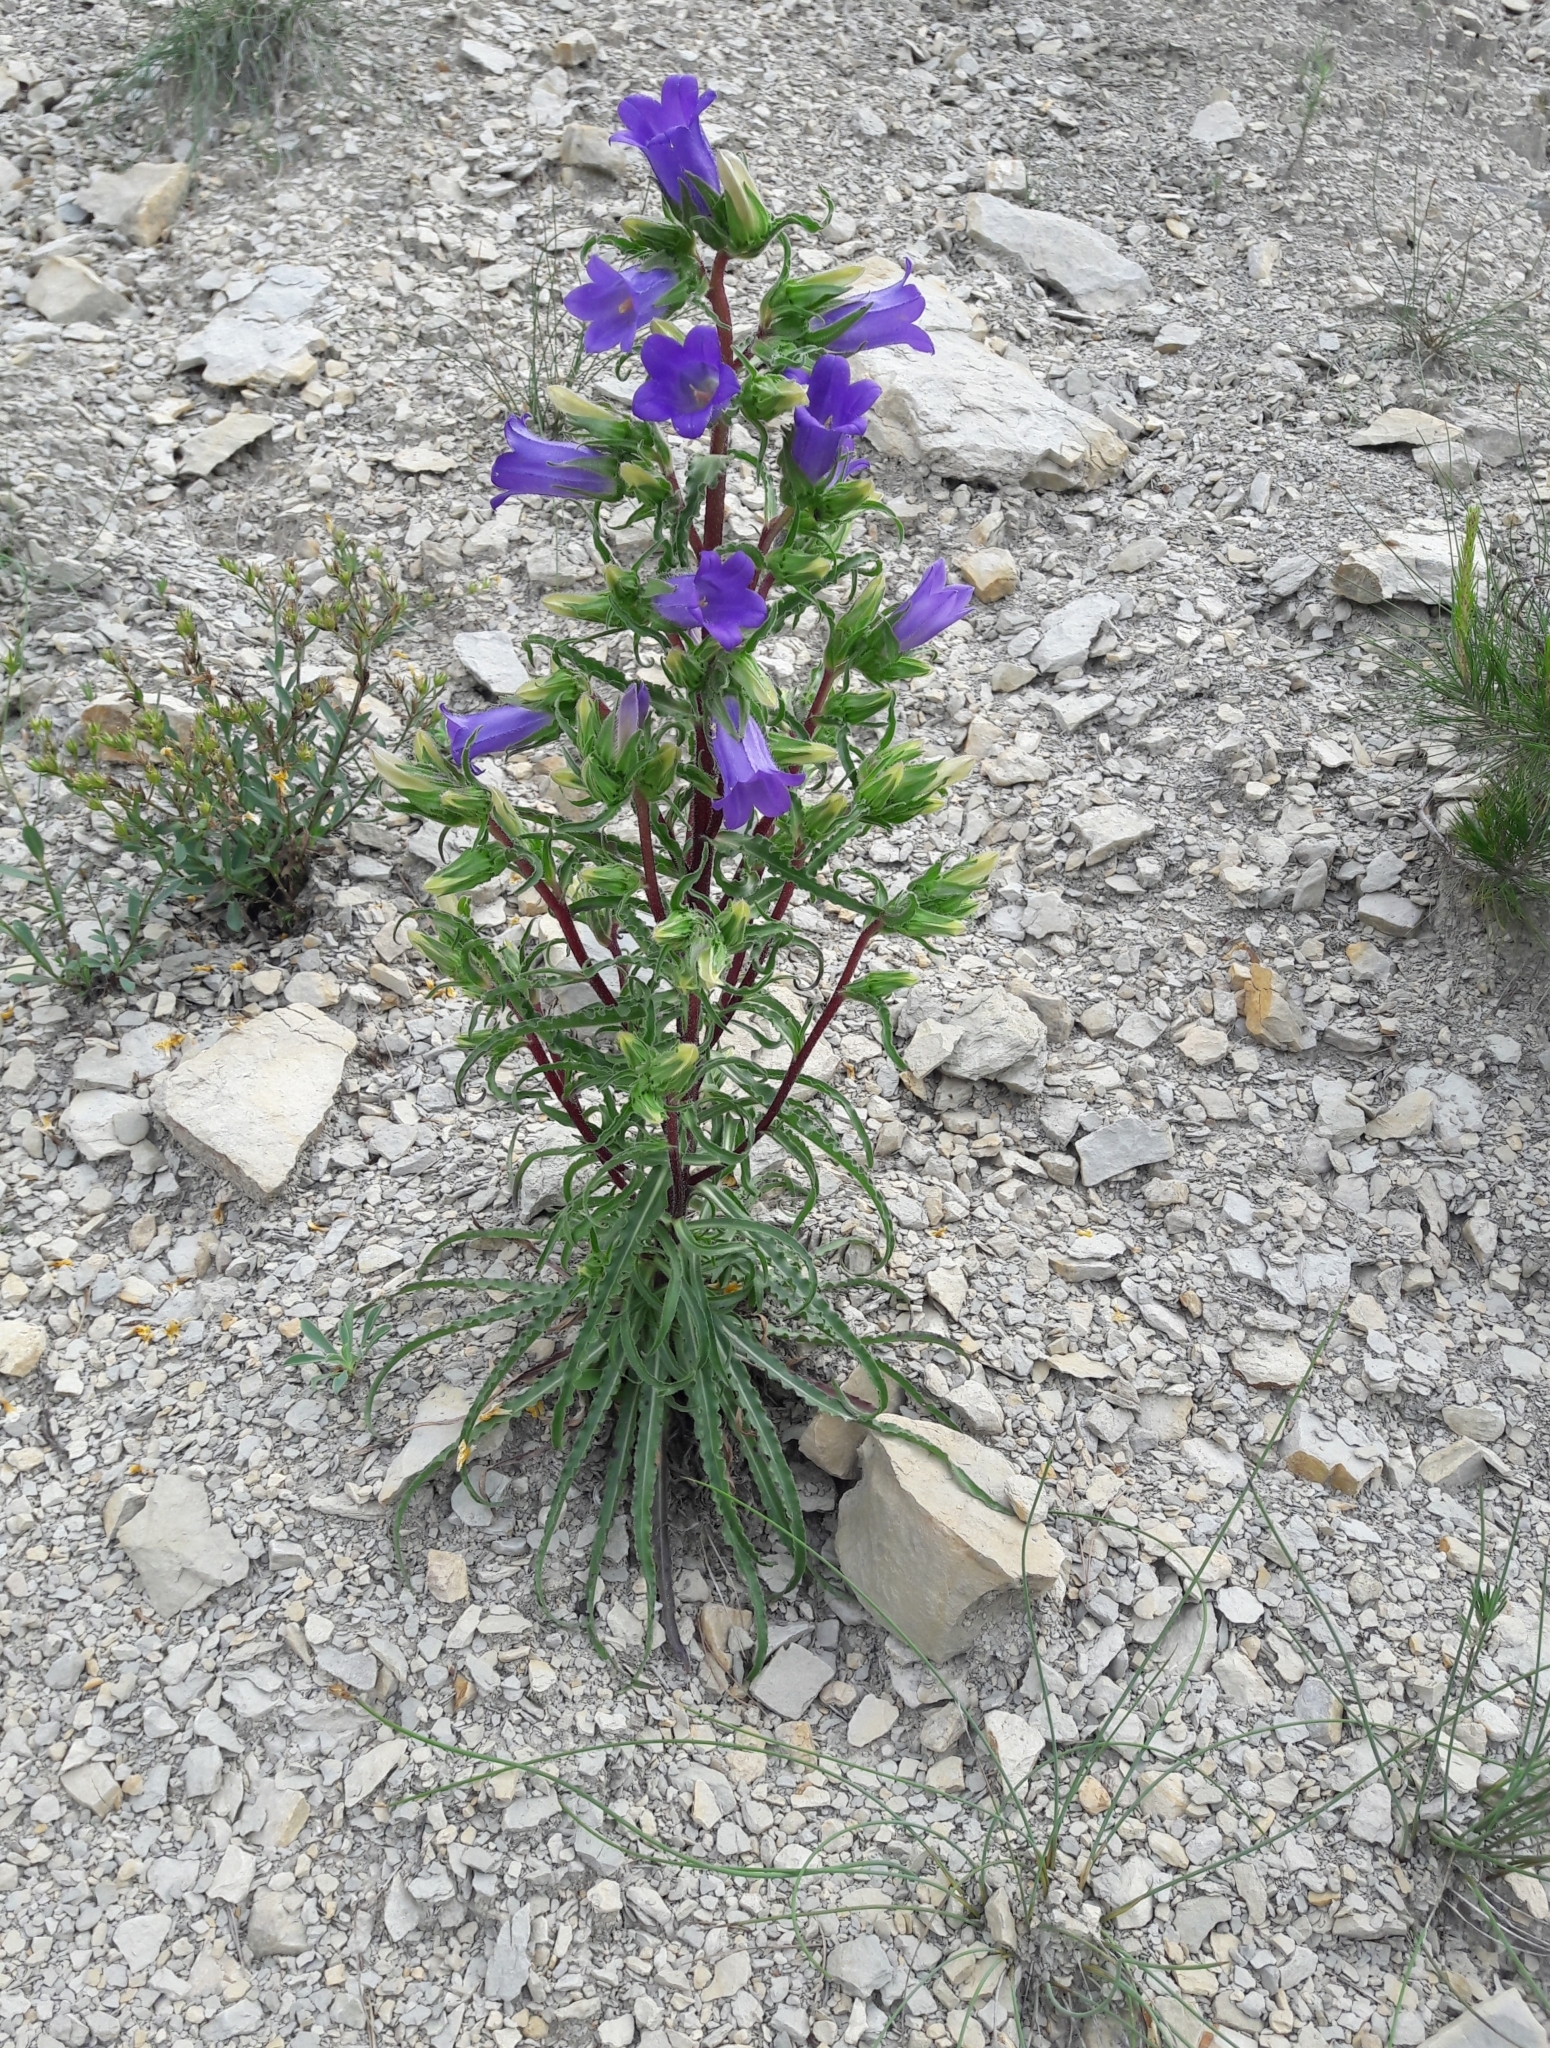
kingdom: Plantae
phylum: Tracheophyta
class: Magnoliopsida
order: Asterales
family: Campanulaceae
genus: Campanula
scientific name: Campanula speciosa
